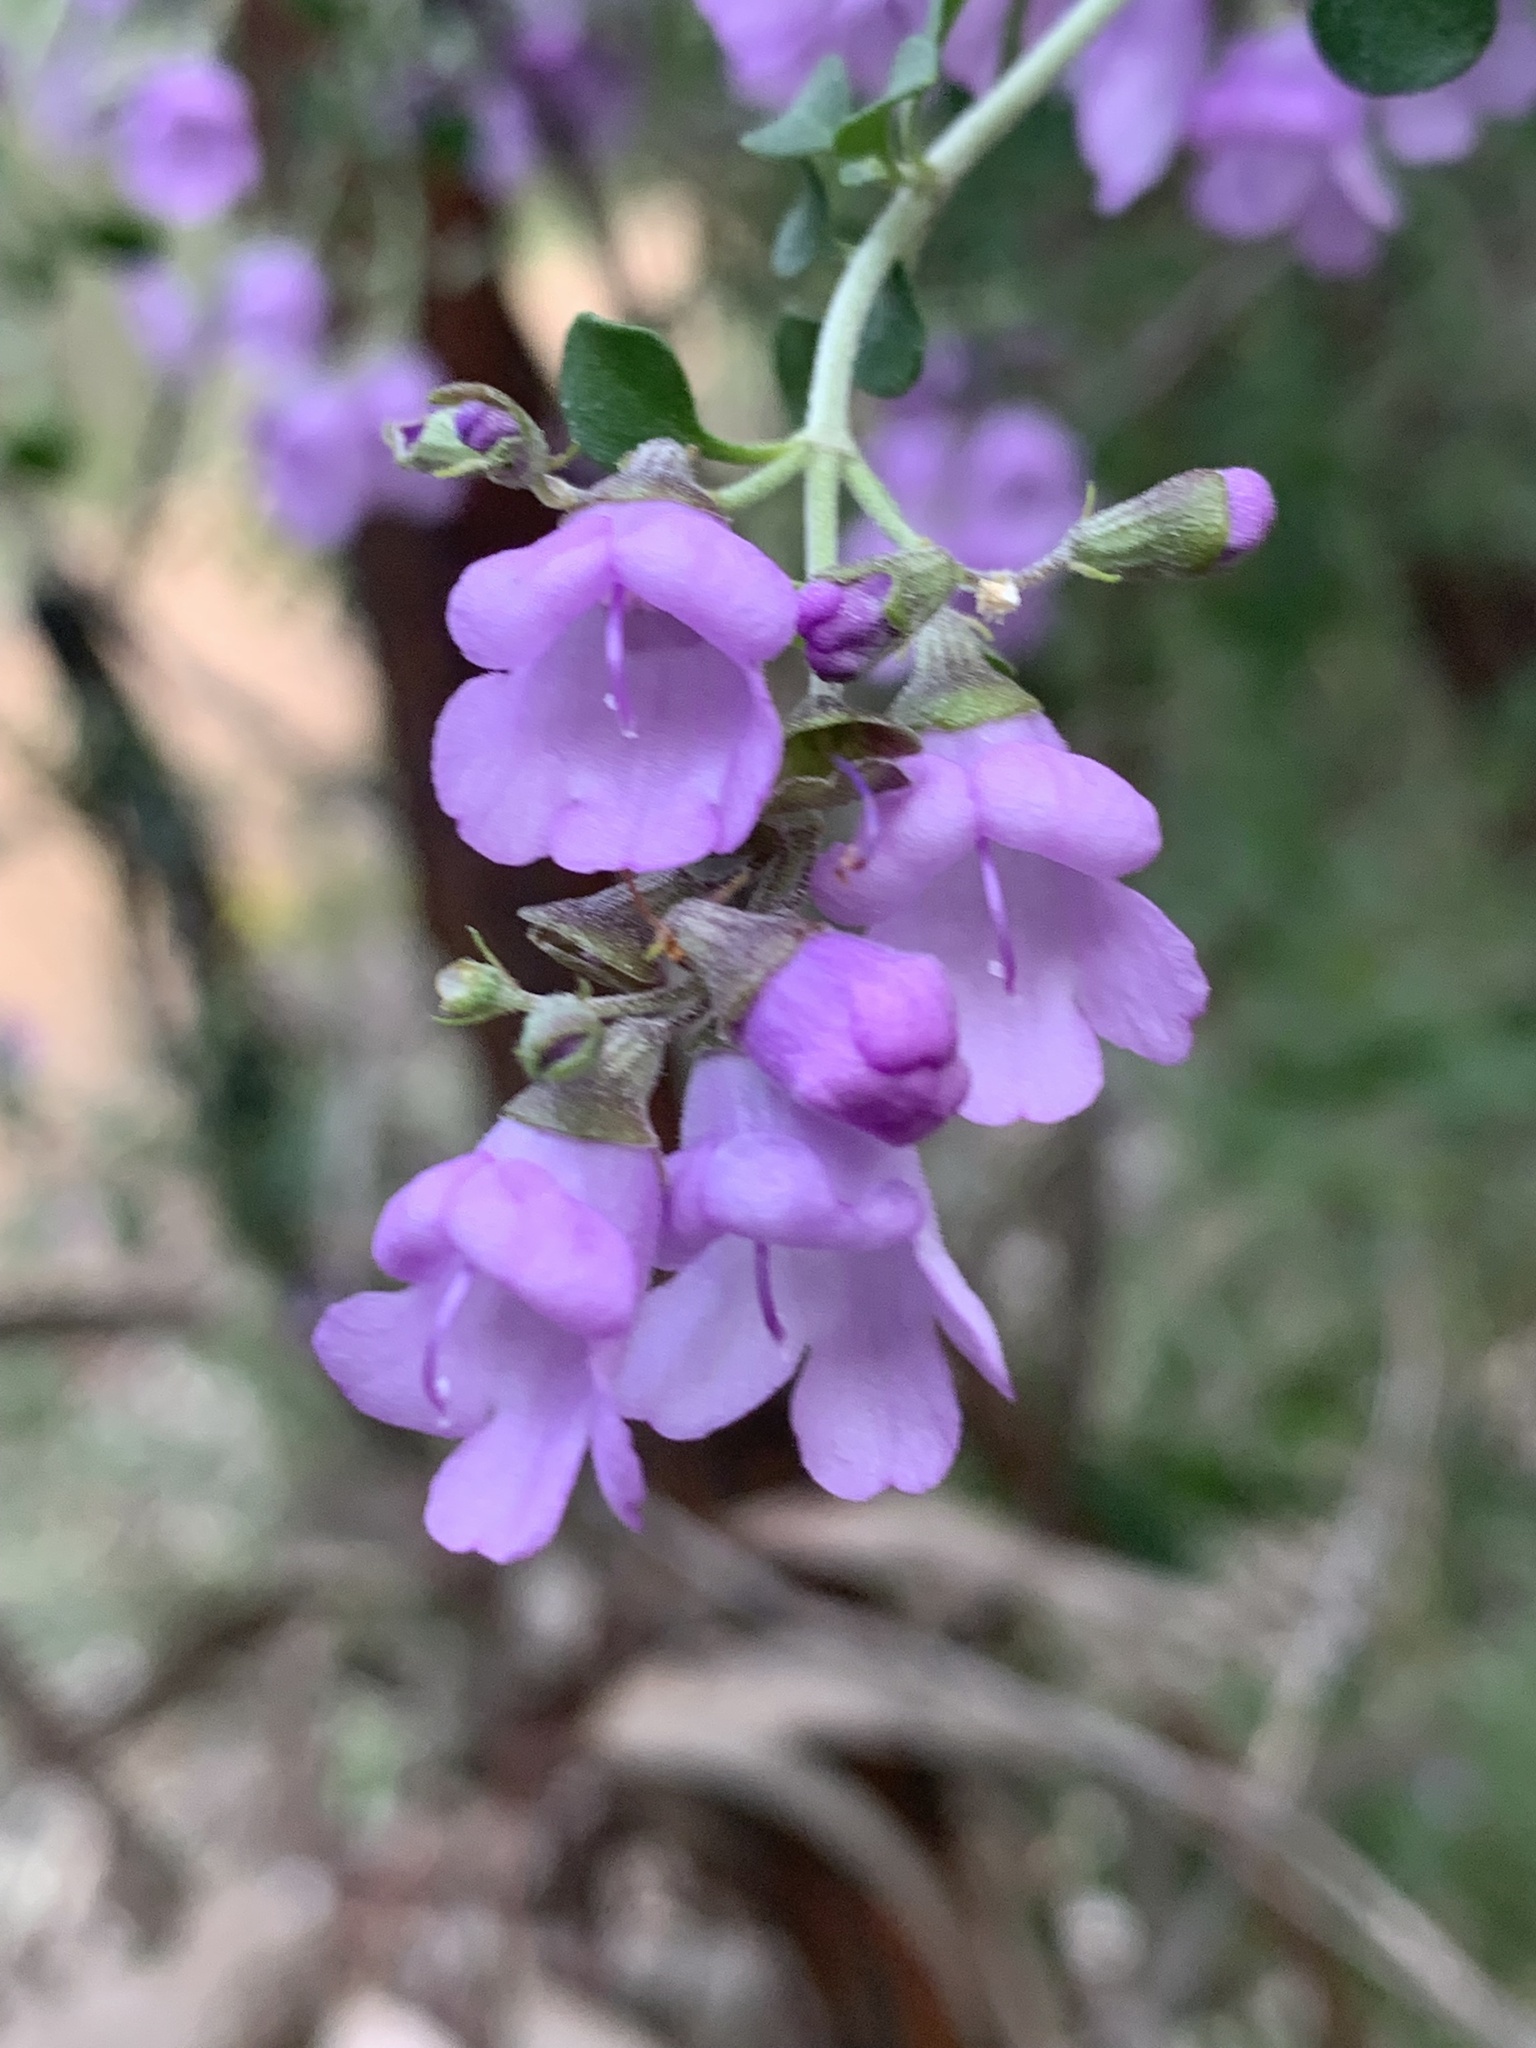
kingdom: Plantae
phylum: Tracheophyta
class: Magnoliopsida
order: Lamiales
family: Lamiaceae
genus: Prostanthera
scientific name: Prostanthera rotundifolia
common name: Round-leaf mintbush
